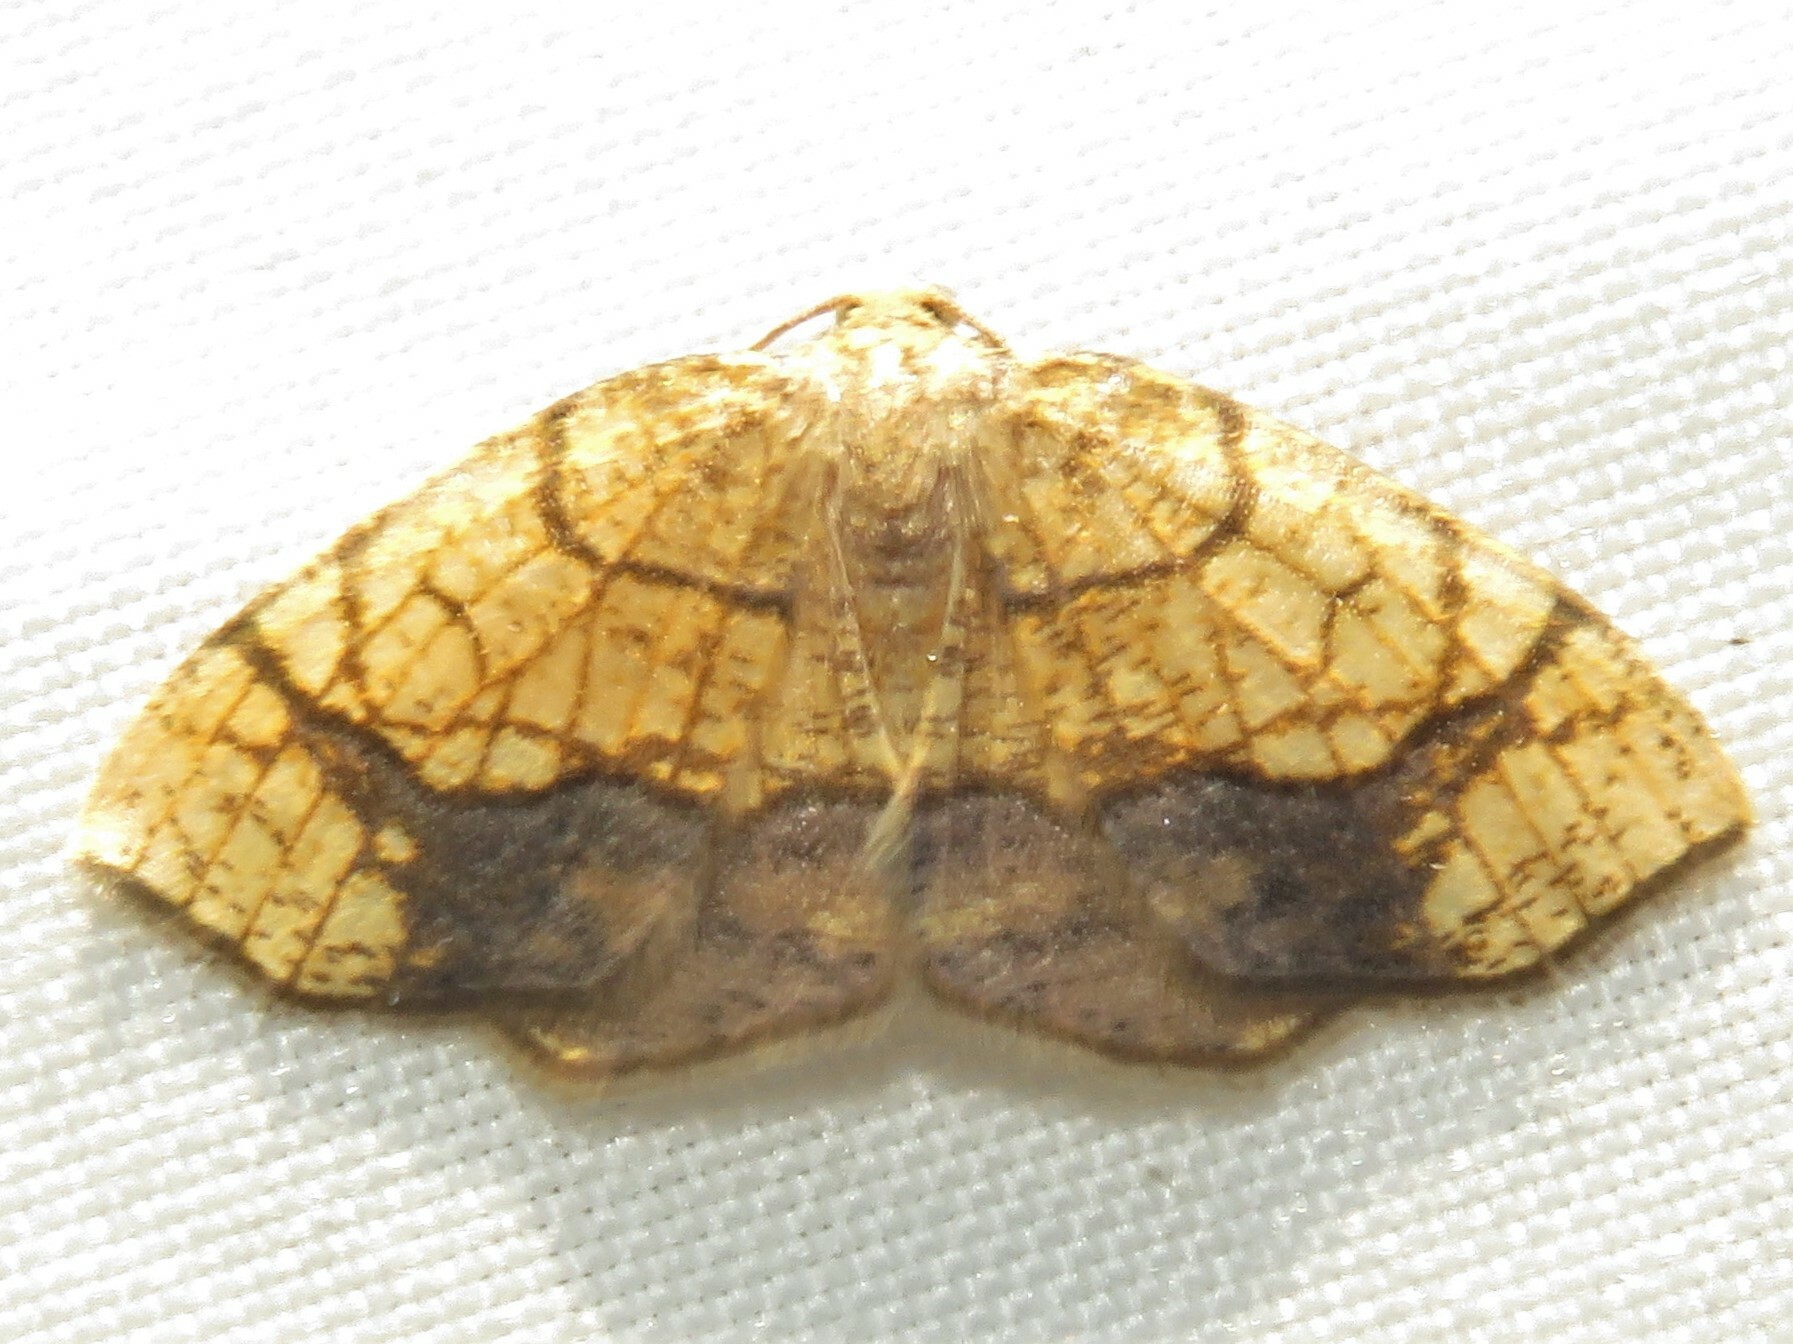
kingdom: Animalia
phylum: Arthropoda
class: Insecta
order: Lepidoptera
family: Geometridae
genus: Nematocampa
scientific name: Nematocampa resistaria
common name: Horned spanworm moth
